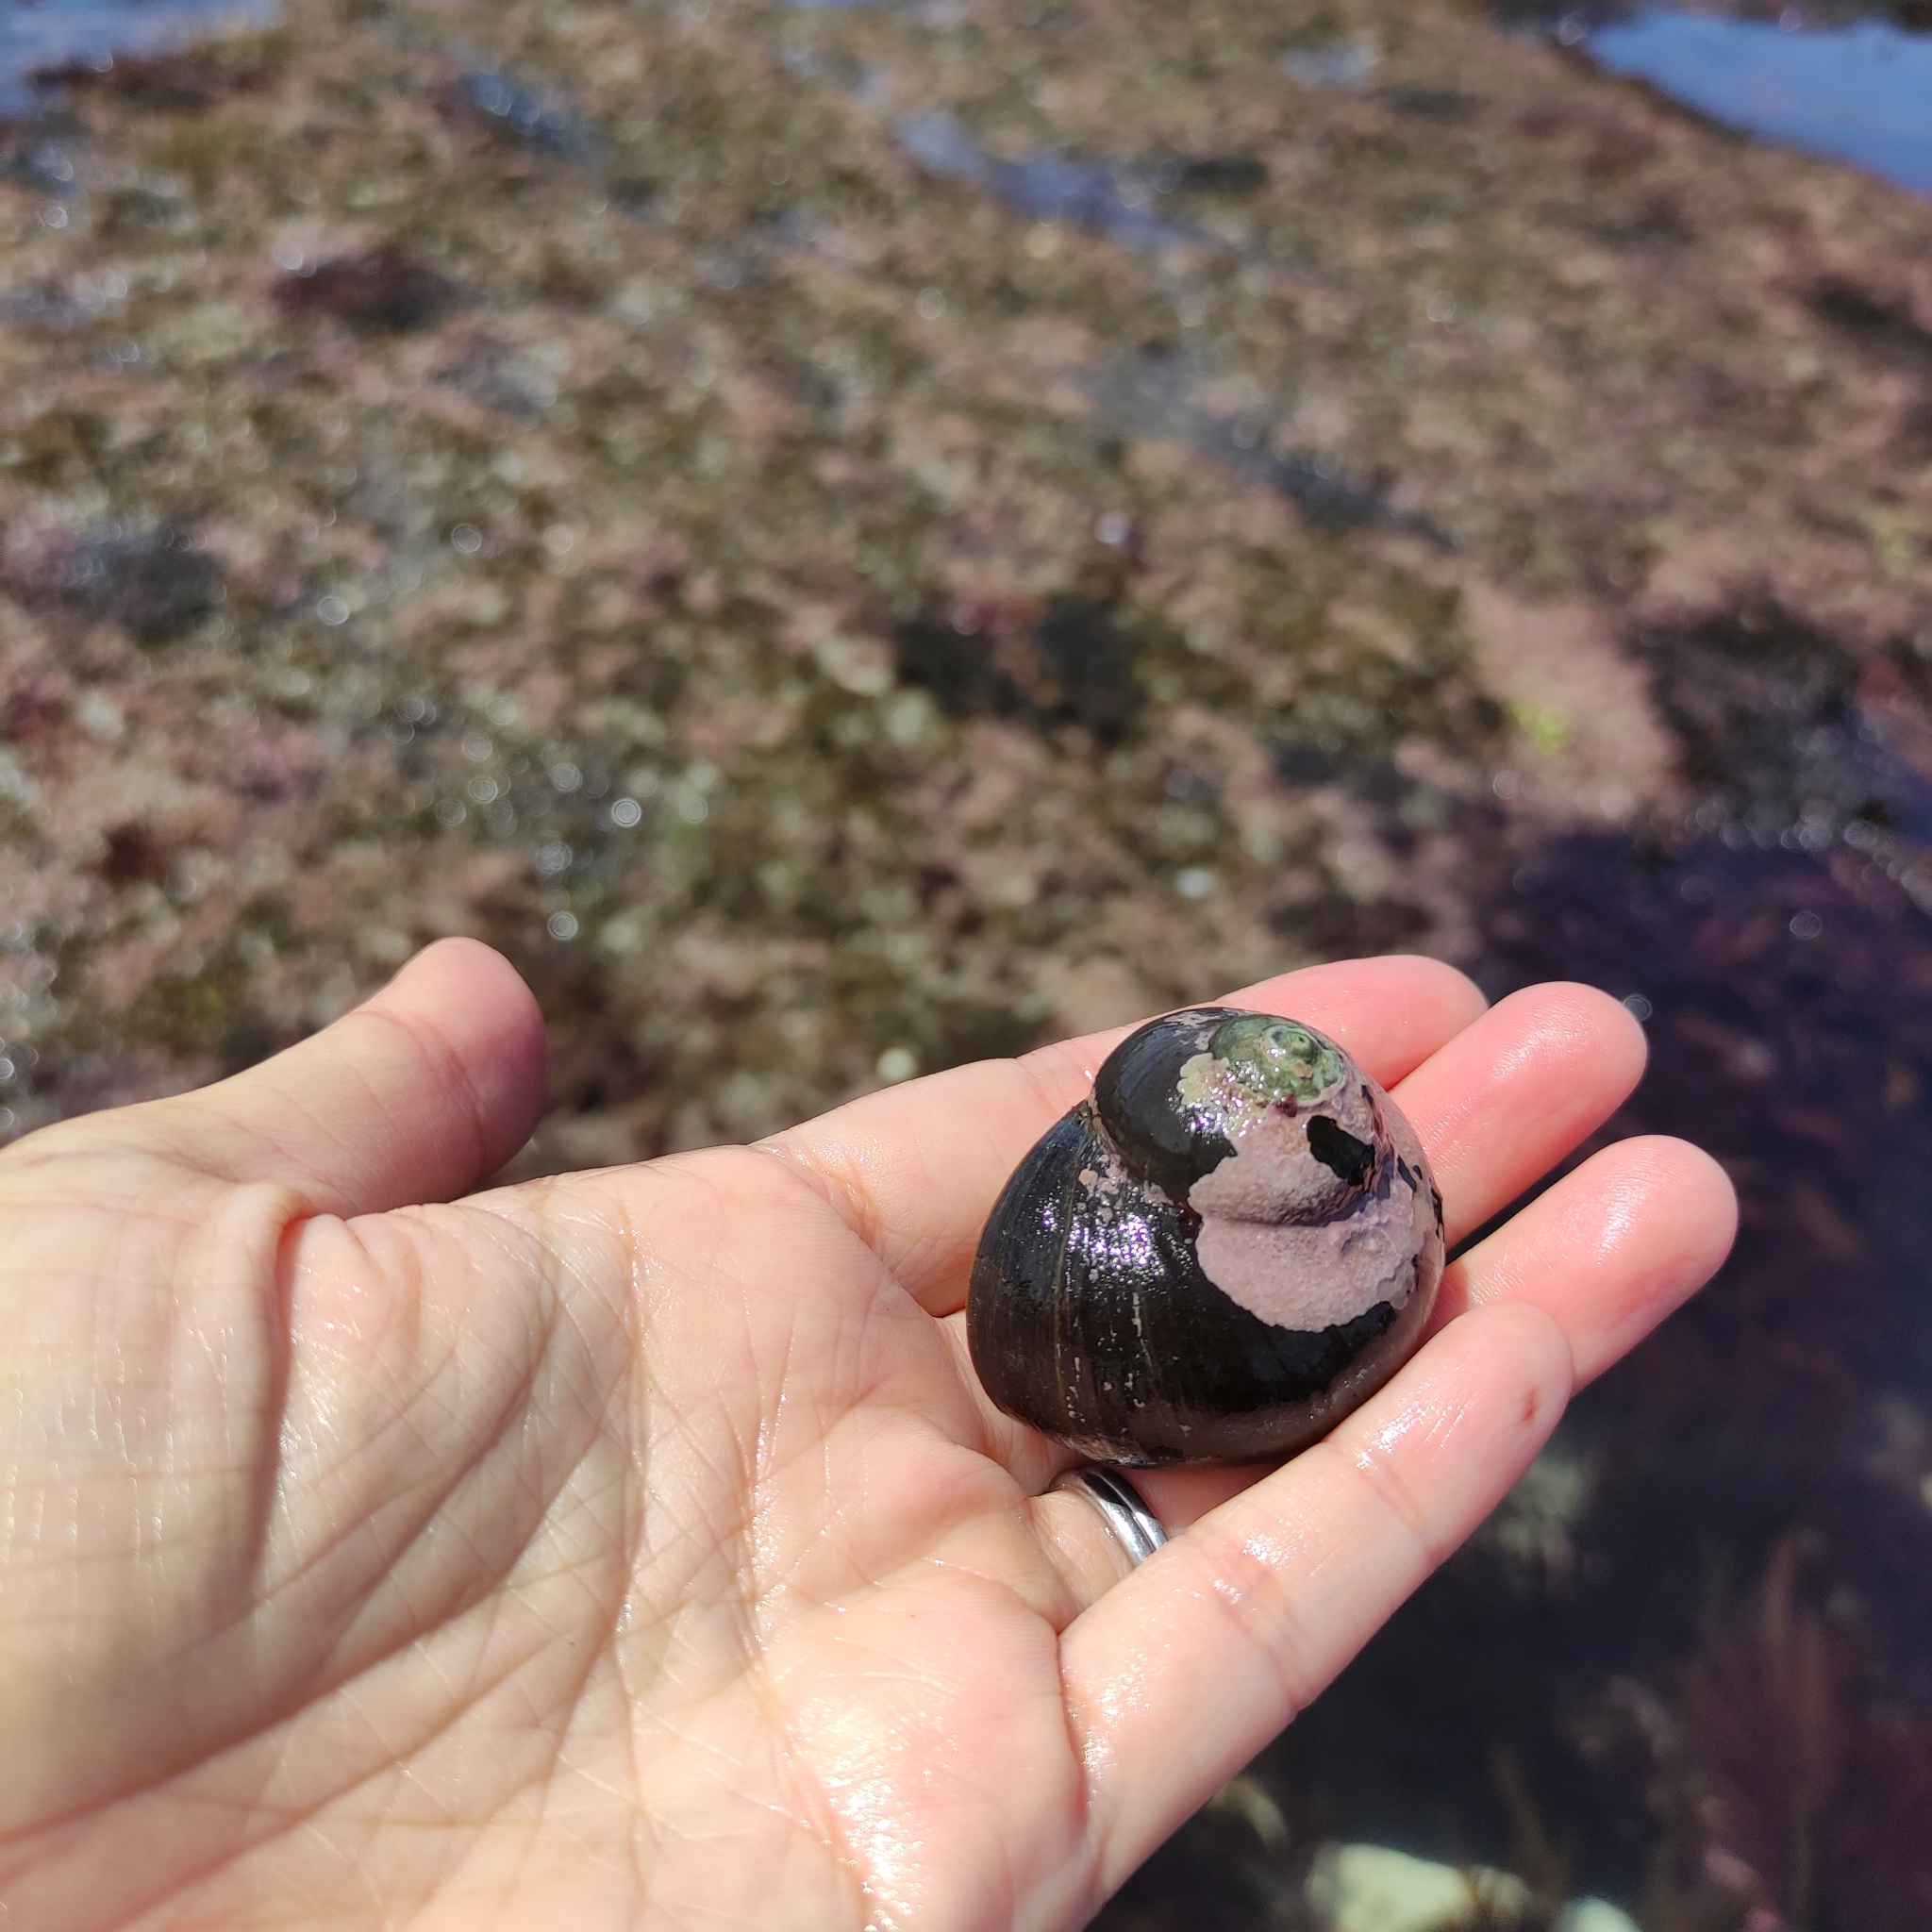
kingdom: Animalia
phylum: Mollusca
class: Gastropoda
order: Trochida
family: Turbinidae
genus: Lunella
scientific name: Lunella smaragda
